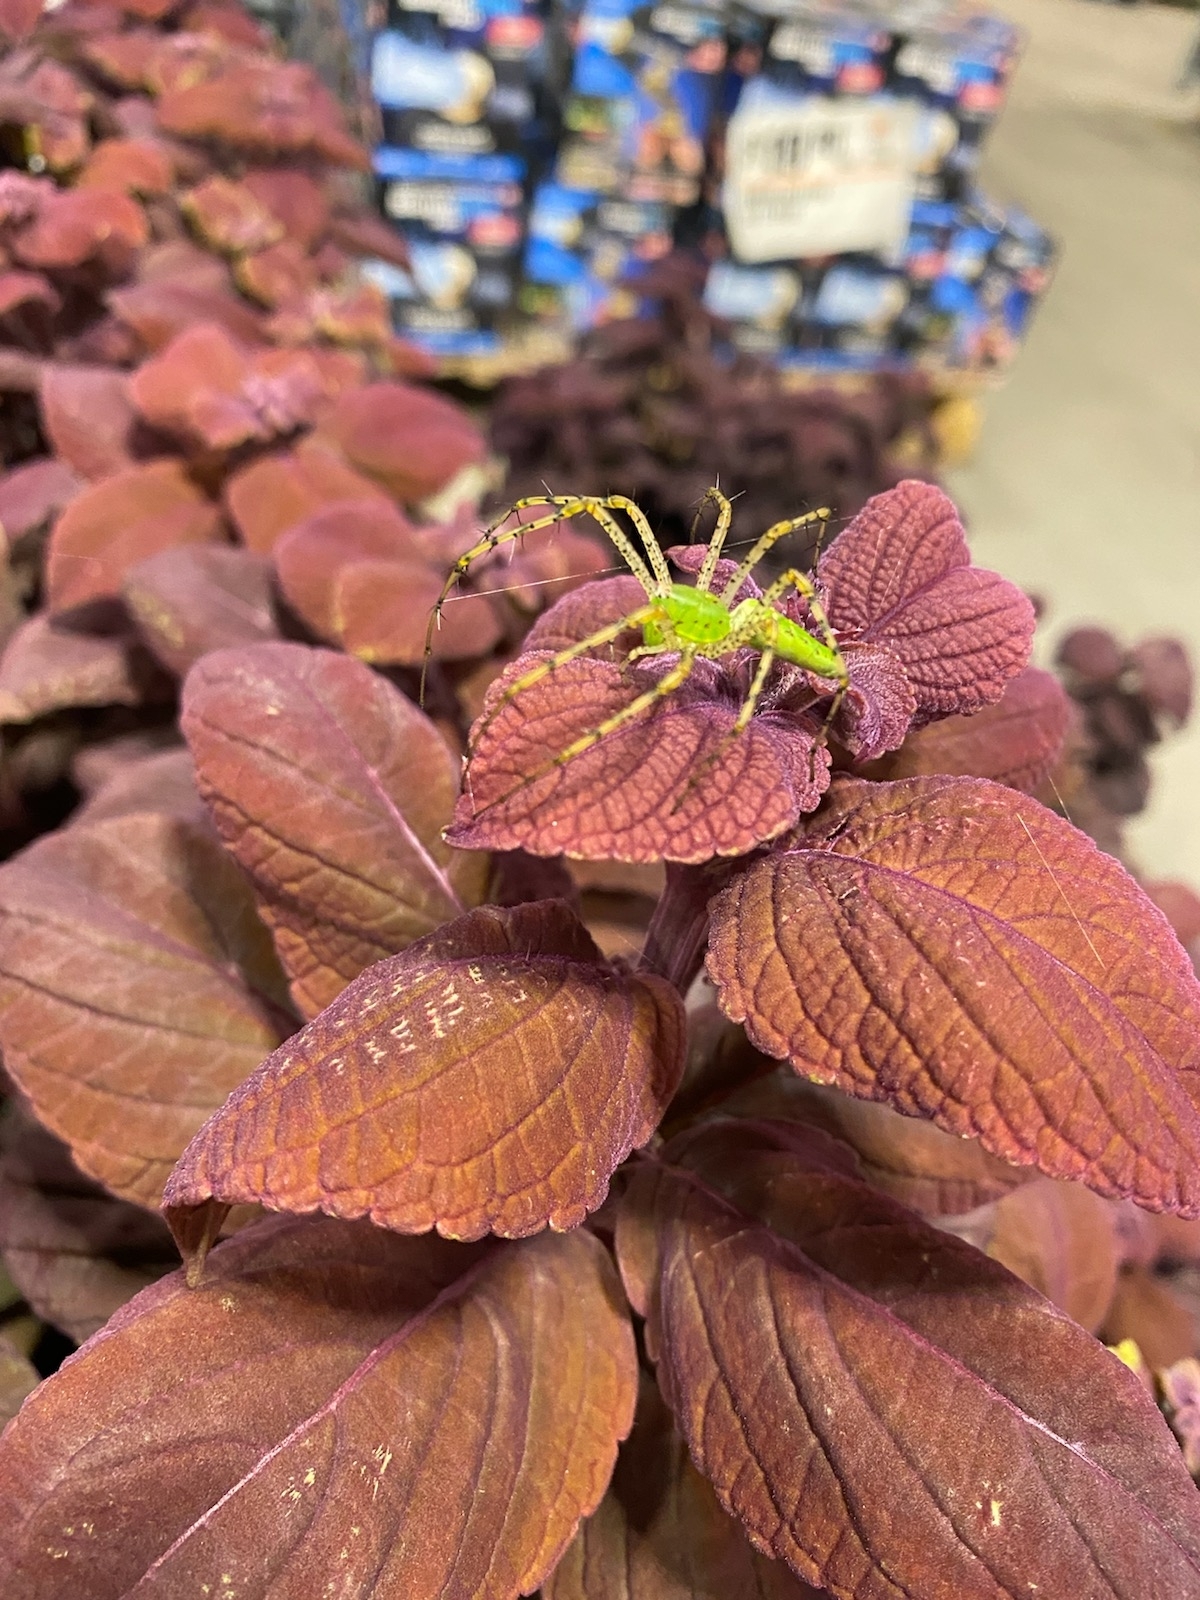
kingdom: Animalia
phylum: Arthropoda
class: Arachnida
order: Araneae
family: Oxyopidae
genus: Peucetia
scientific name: Peucetia viridans
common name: Lynx spiders
